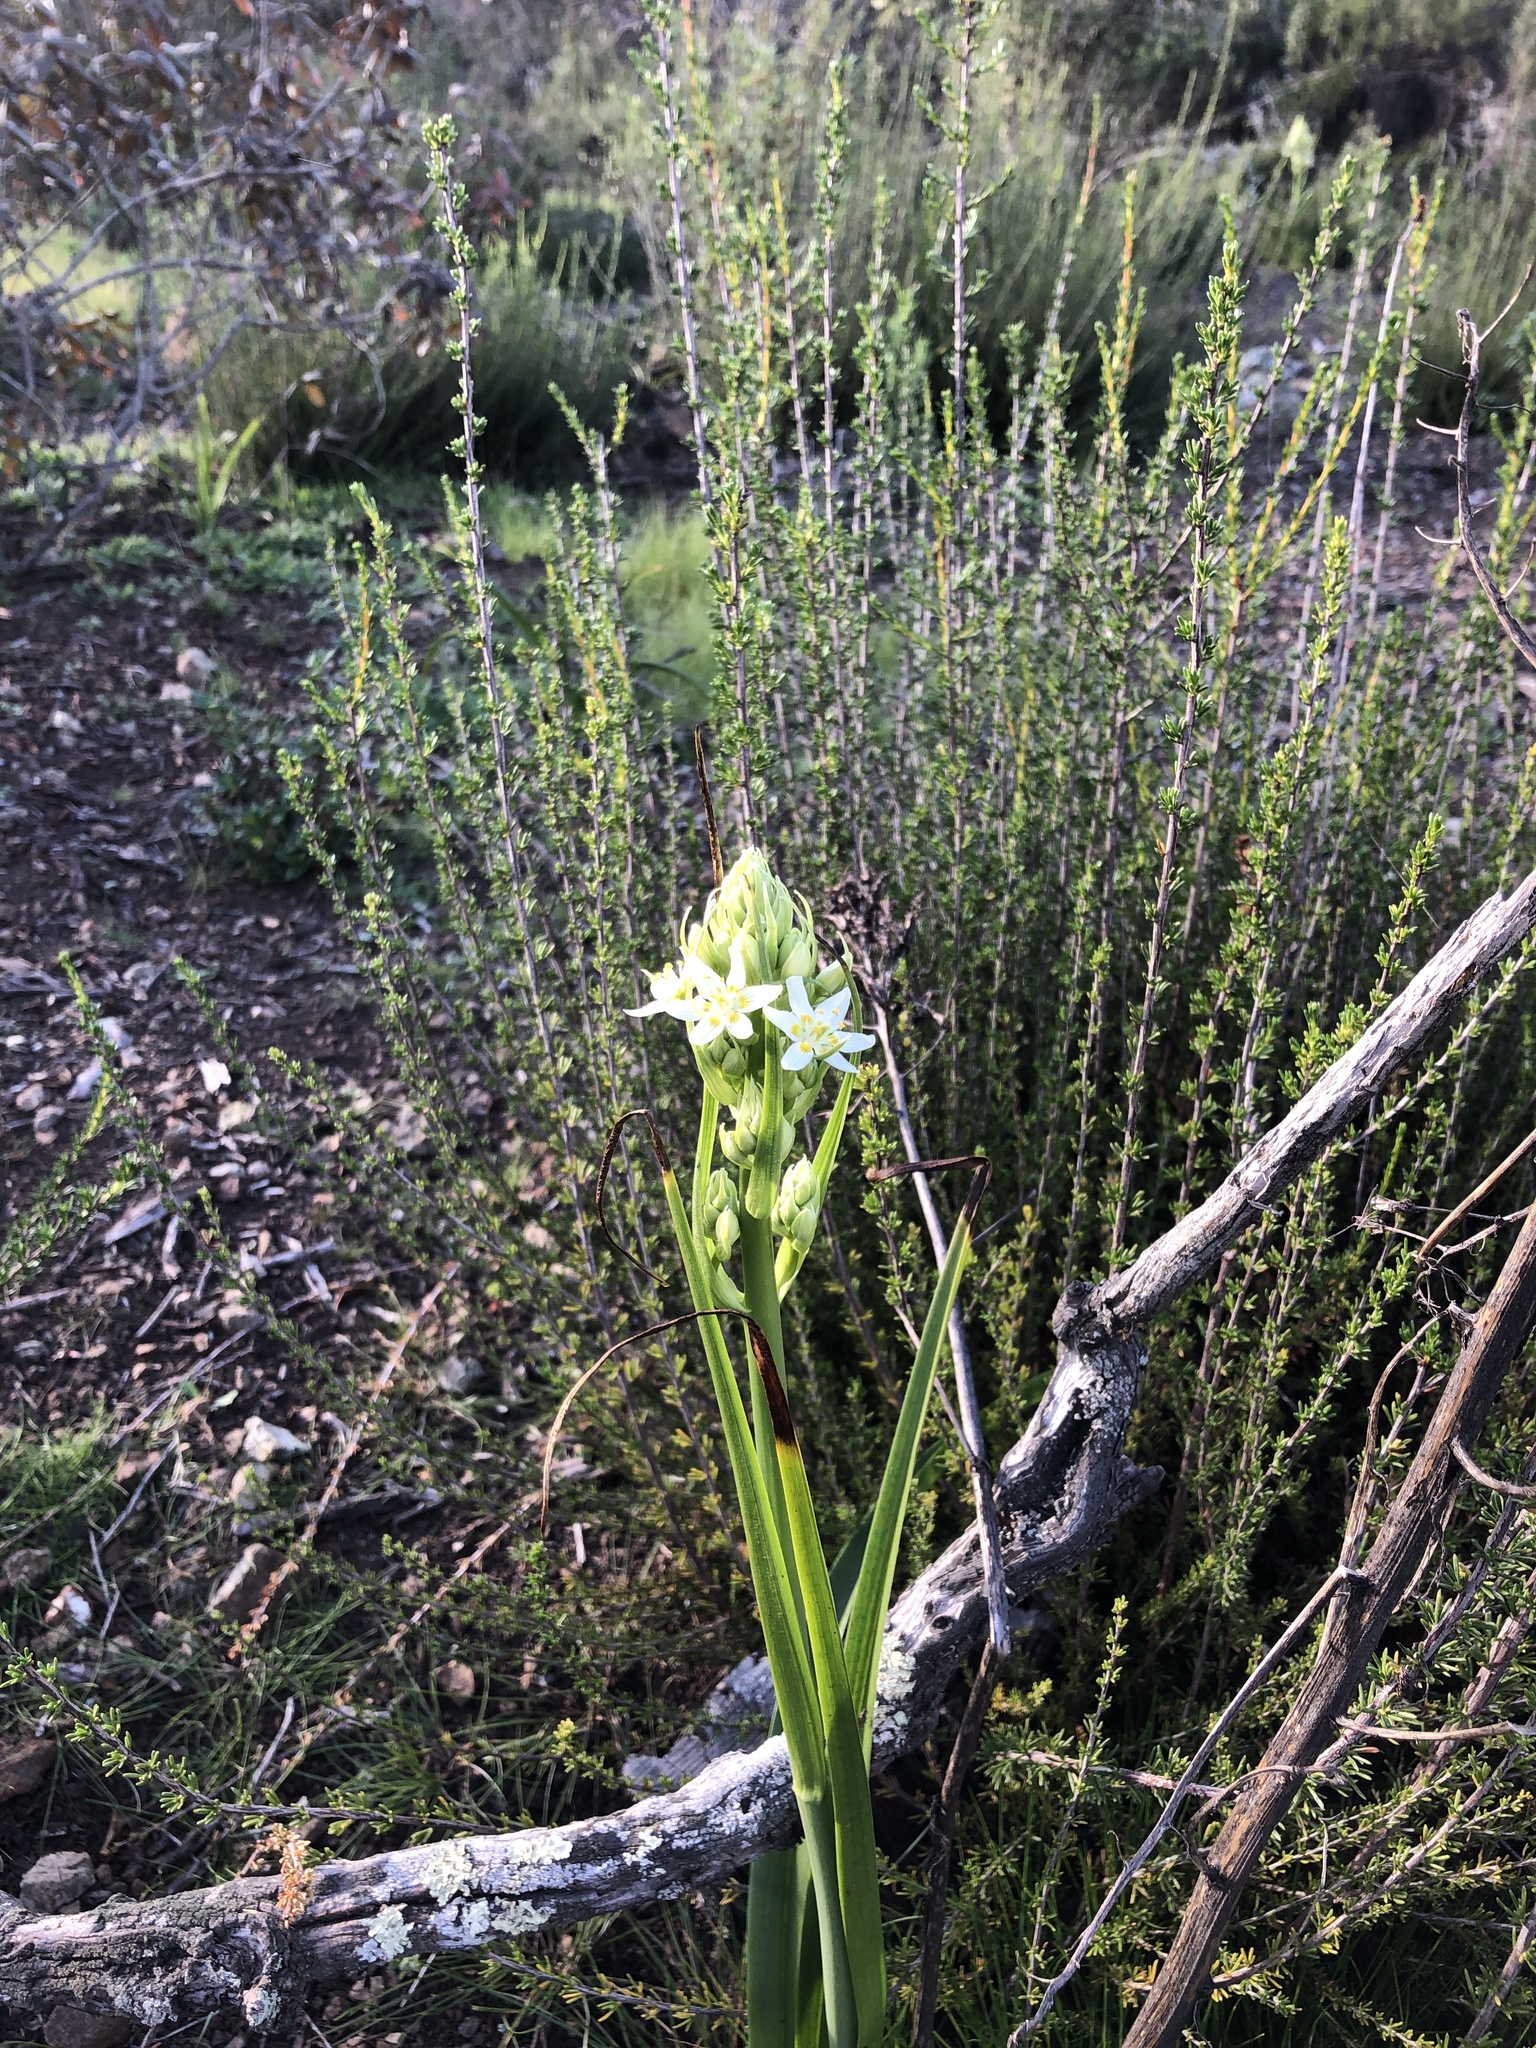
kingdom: Plantae
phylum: Tracheophyta
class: Liliopsida
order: Liliales
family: Melanthiaceae
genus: Toxicoscordion
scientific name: Toxicoscordion fremontii
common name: Fremont's death camas
